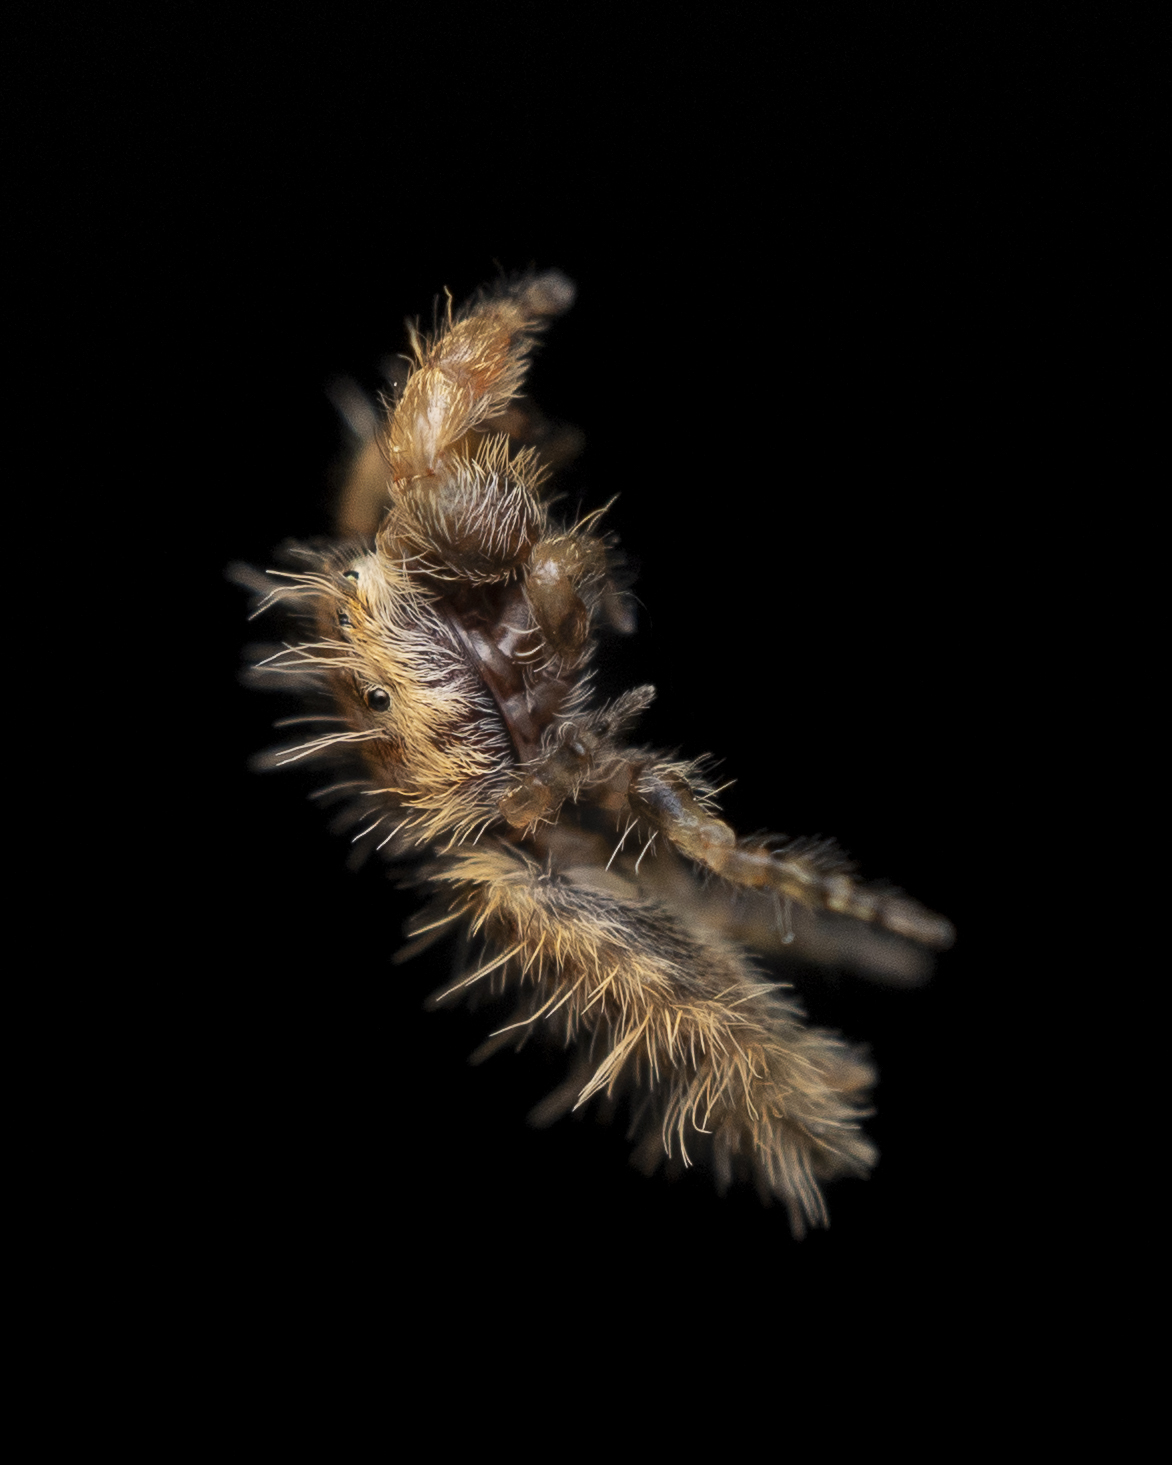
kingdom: Animalia
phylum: Arthropoda
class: Arachnida
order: Araneae
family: Salticidae
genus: Uroballus
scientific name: Uroballus carlei
